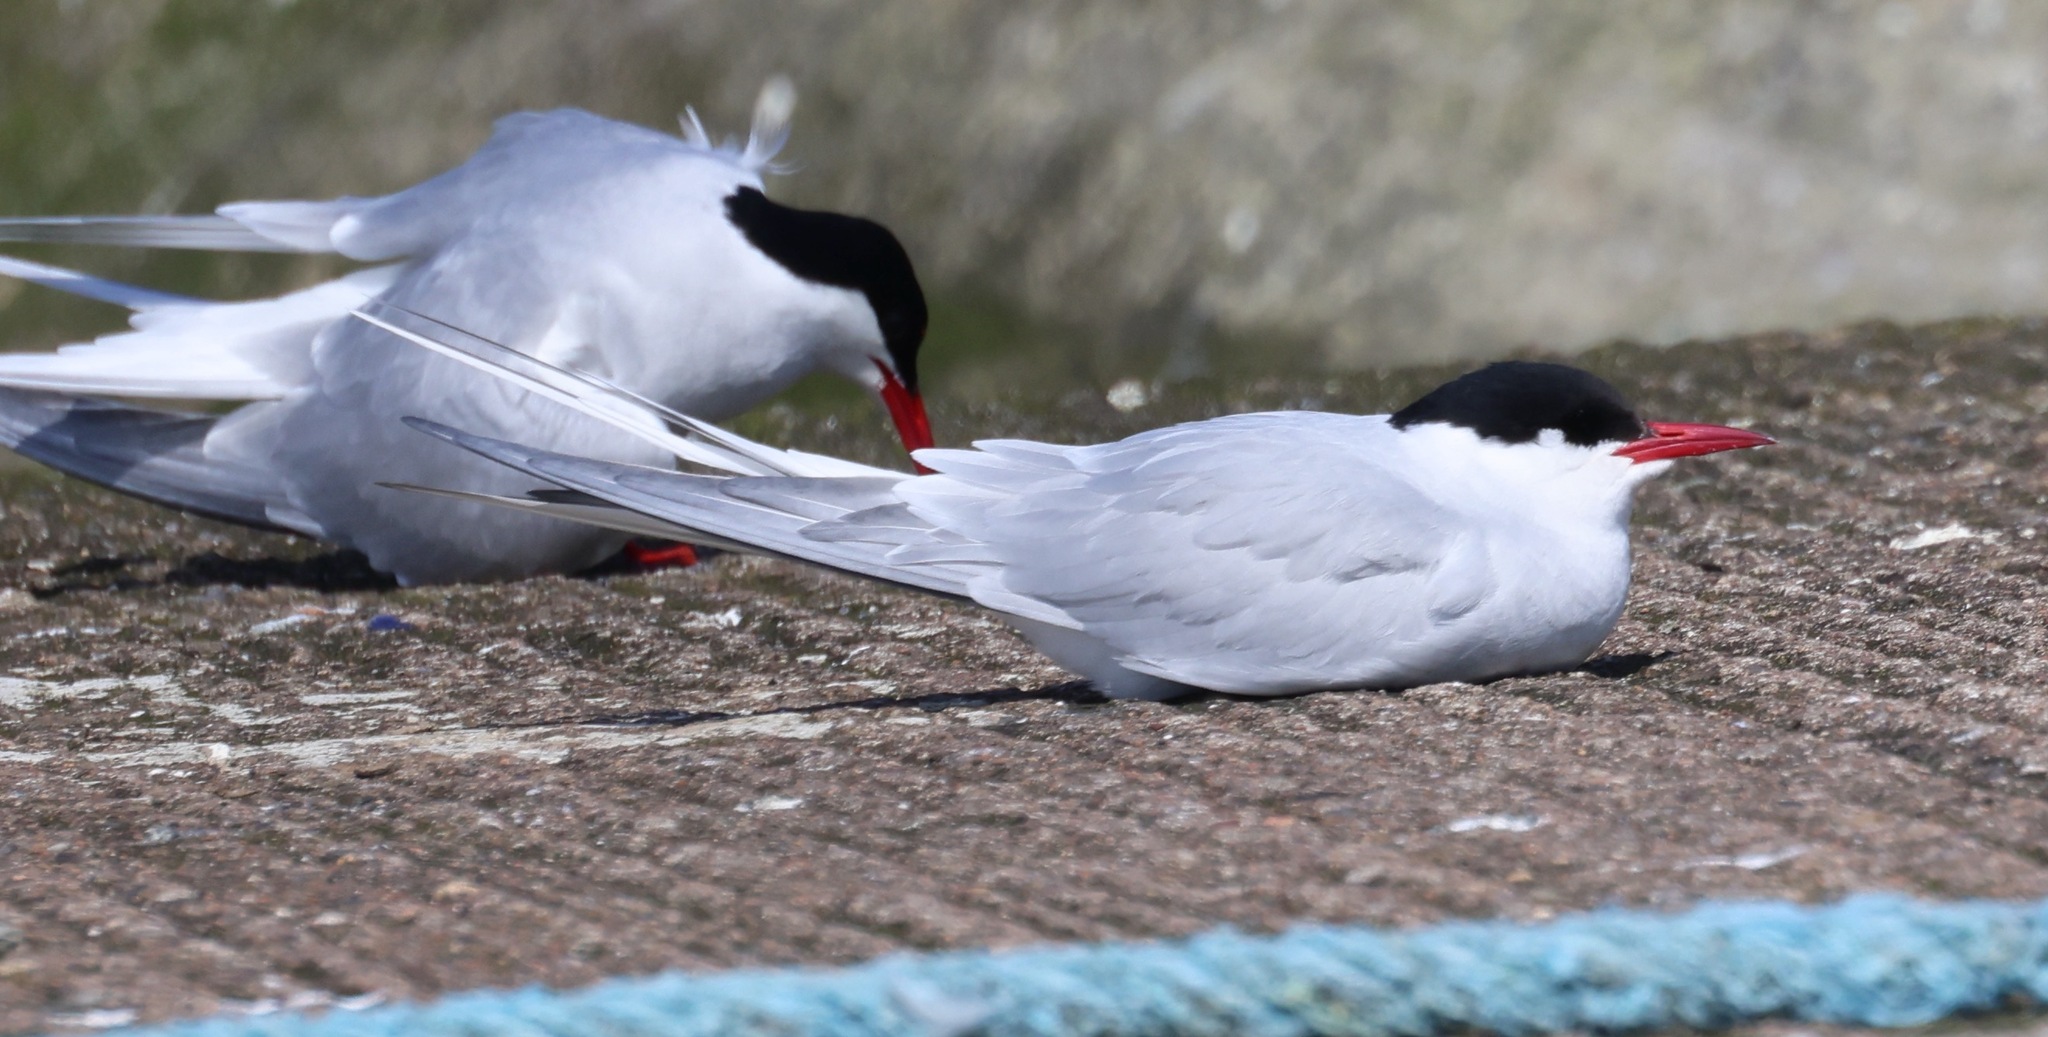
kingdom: Animalia
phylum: Chordata
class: Aves
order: Charadriiformes
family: Laridae
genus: Sterna
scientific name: Sterna paradisaea
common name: Arctic tern
